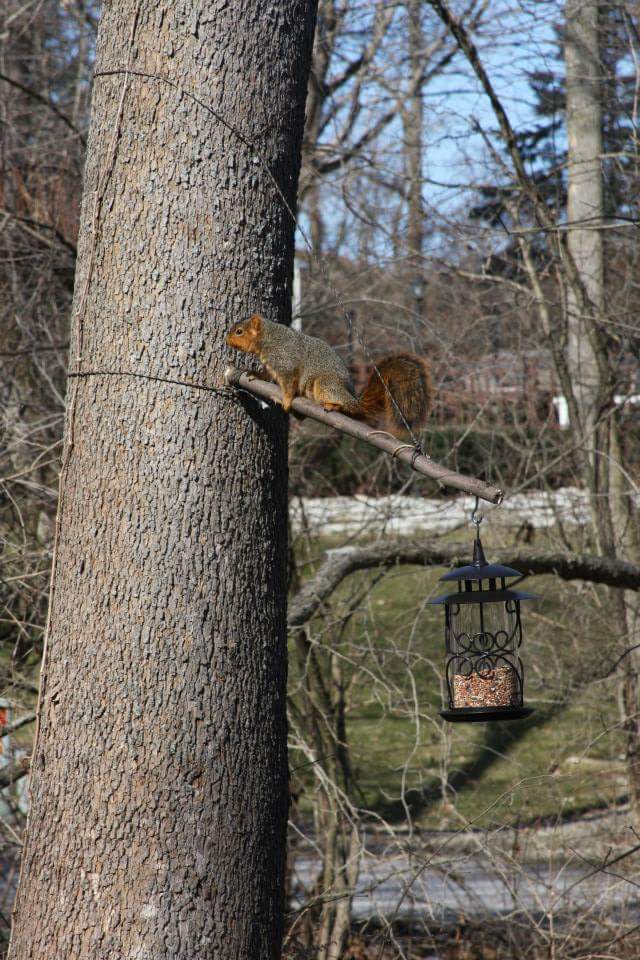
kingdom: Animalia
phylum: Chordata
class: Mammalia
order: Rodentia
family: Sciuridae
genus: Sciurus
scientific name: Sciurus niger
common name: Fox squirrel
